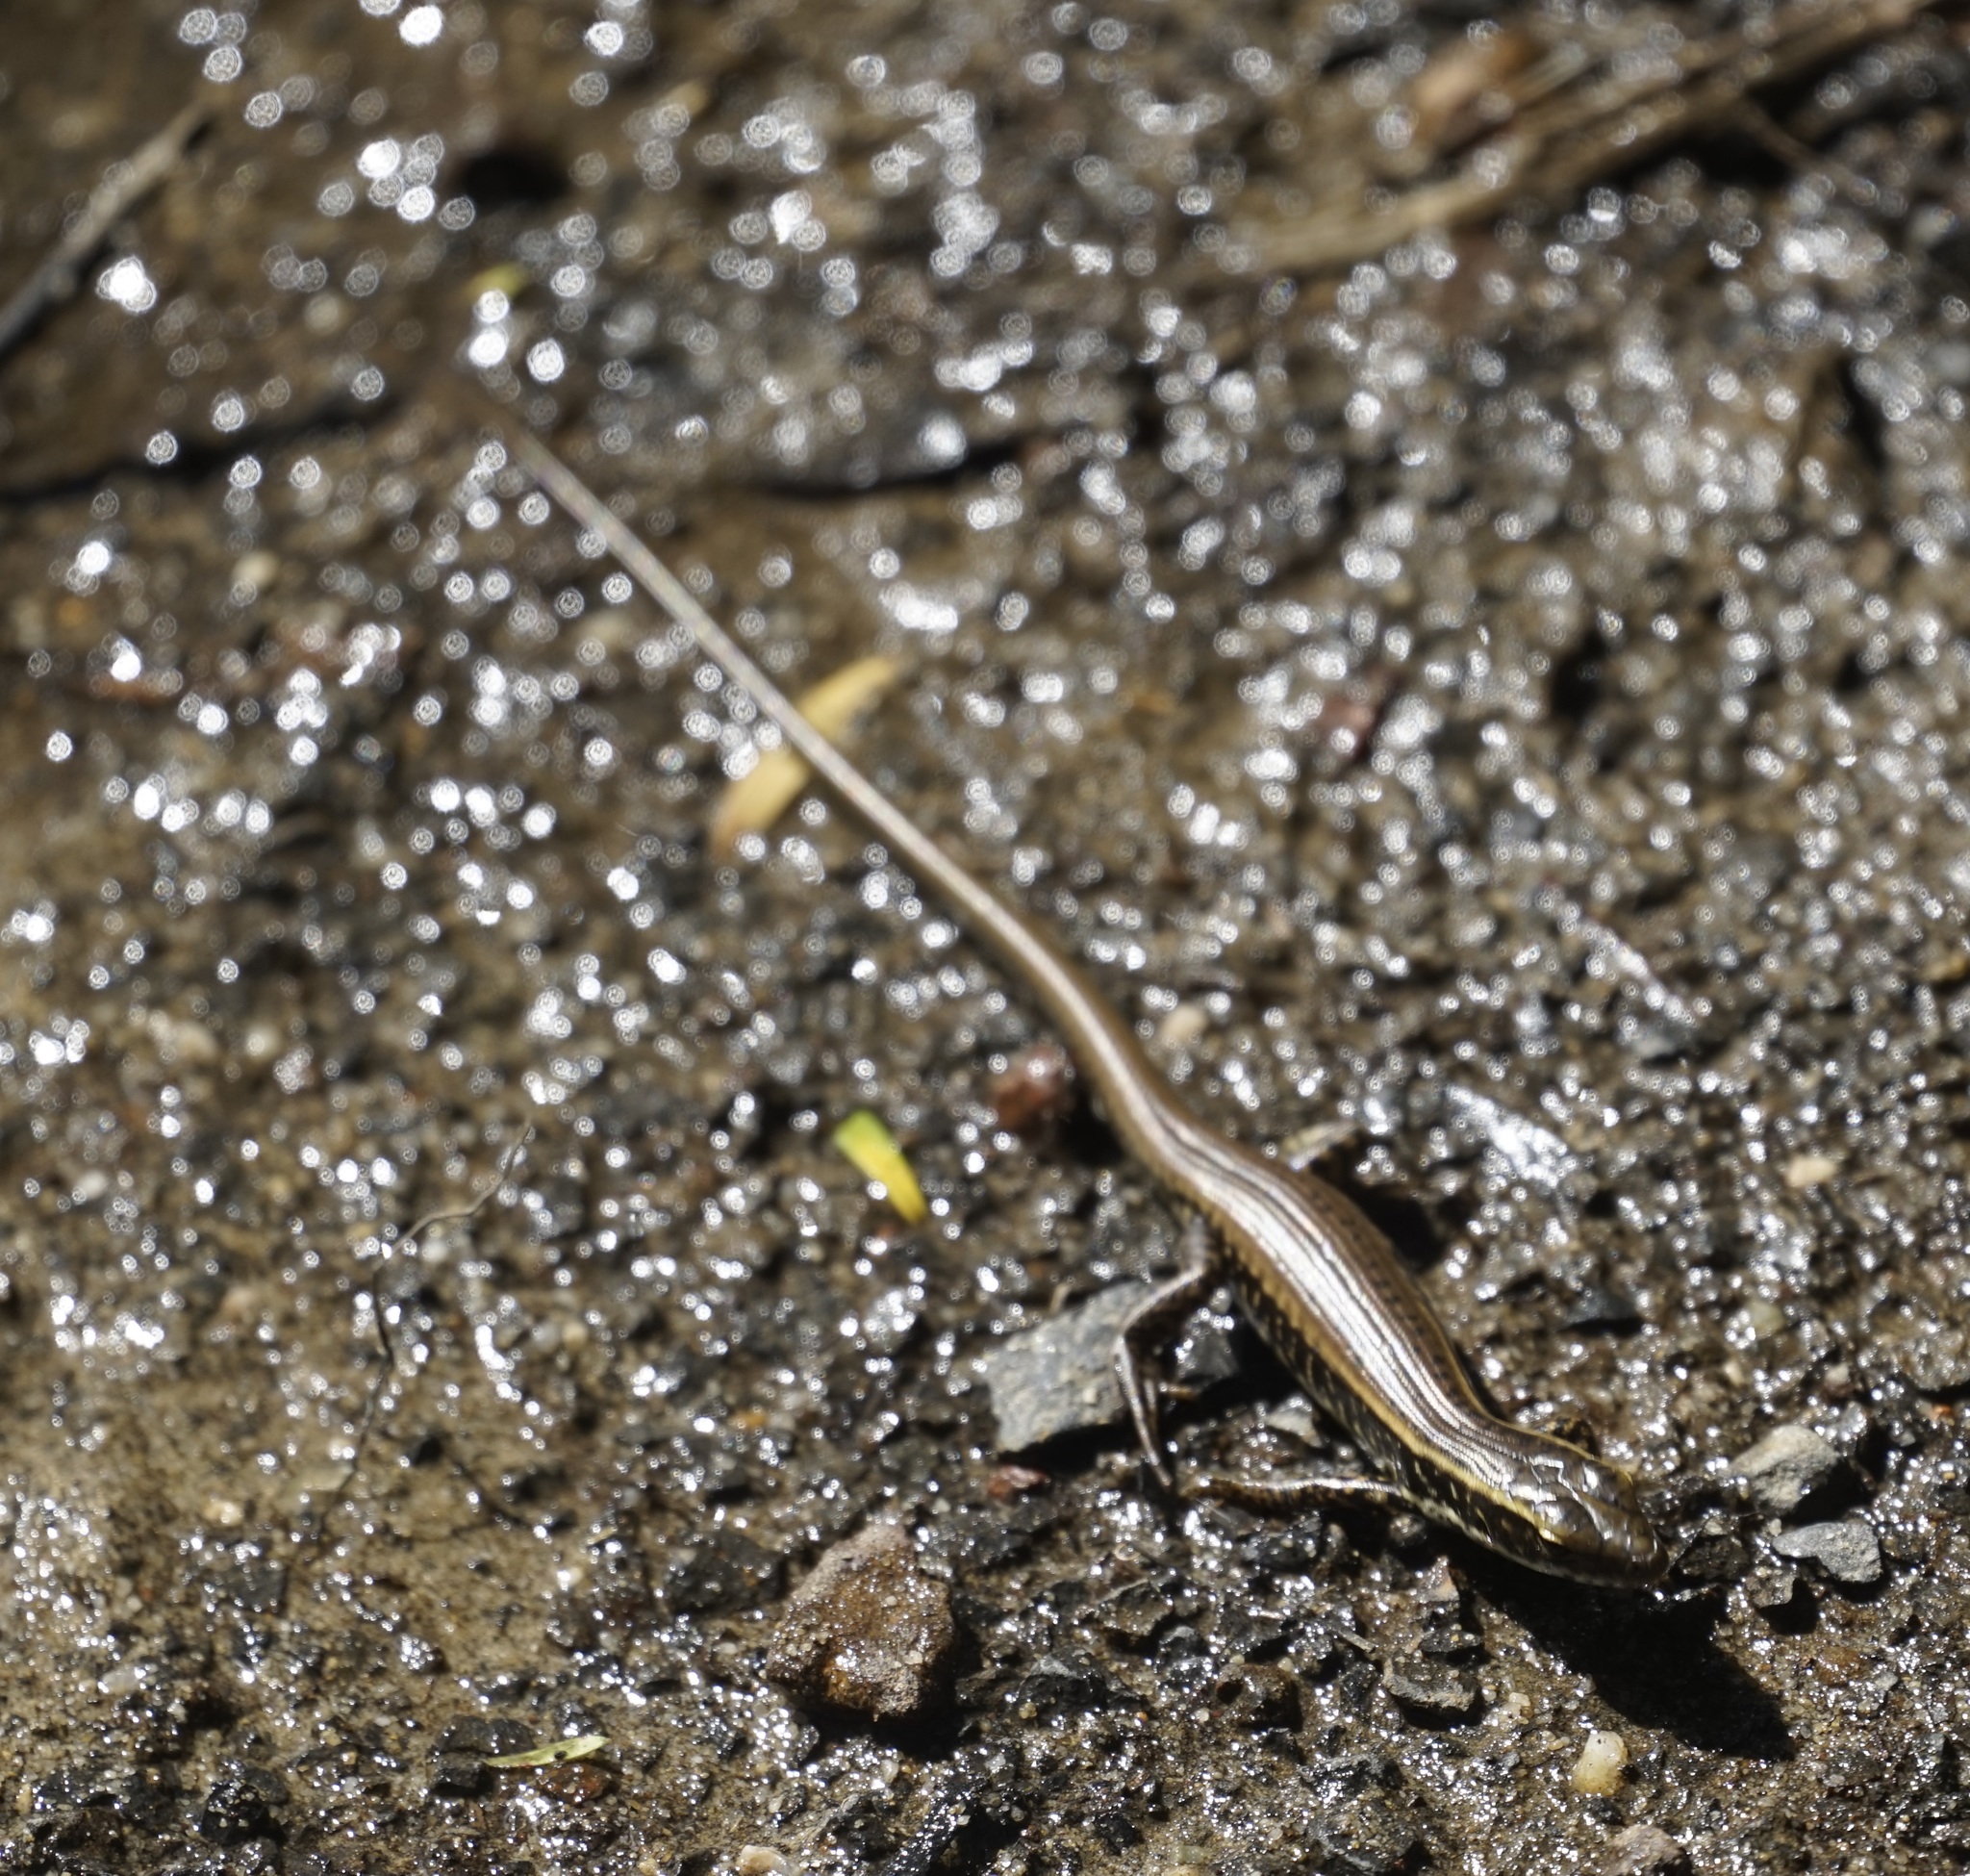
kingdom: Animalia
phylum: Chordata
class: Squamata
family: Scincidae
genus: Eulamprus
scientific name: Eulamprus quoyii
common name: Eastern water skink
